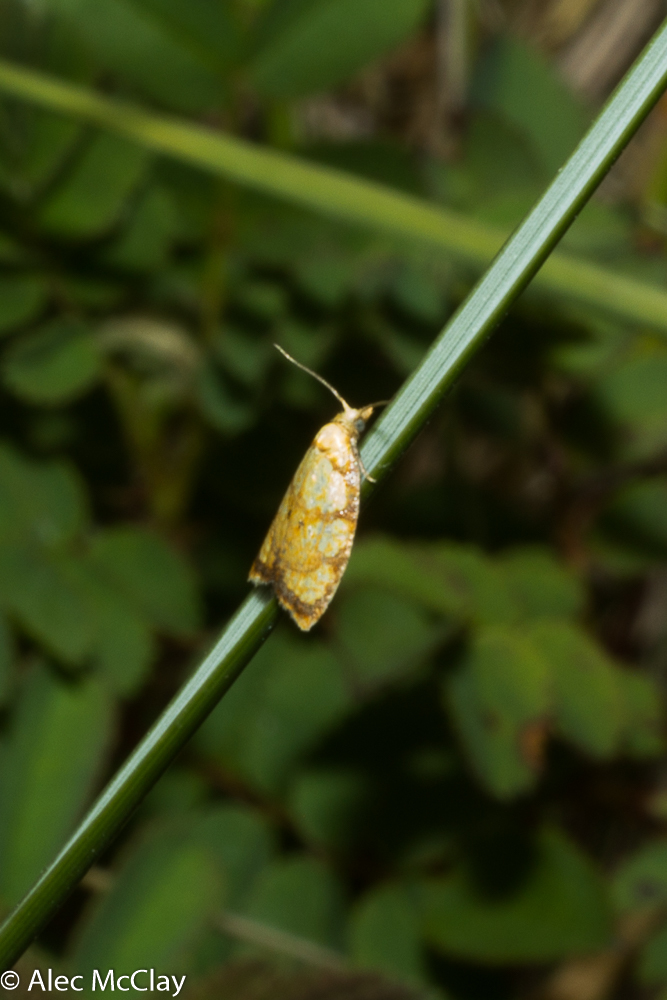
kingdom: Animalia
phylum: Arthropoda
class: Insecta
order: Lepidoptera
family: Tortricidae
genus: Acleris
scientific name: Acleris bergmanniana
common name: Yellow rose button
